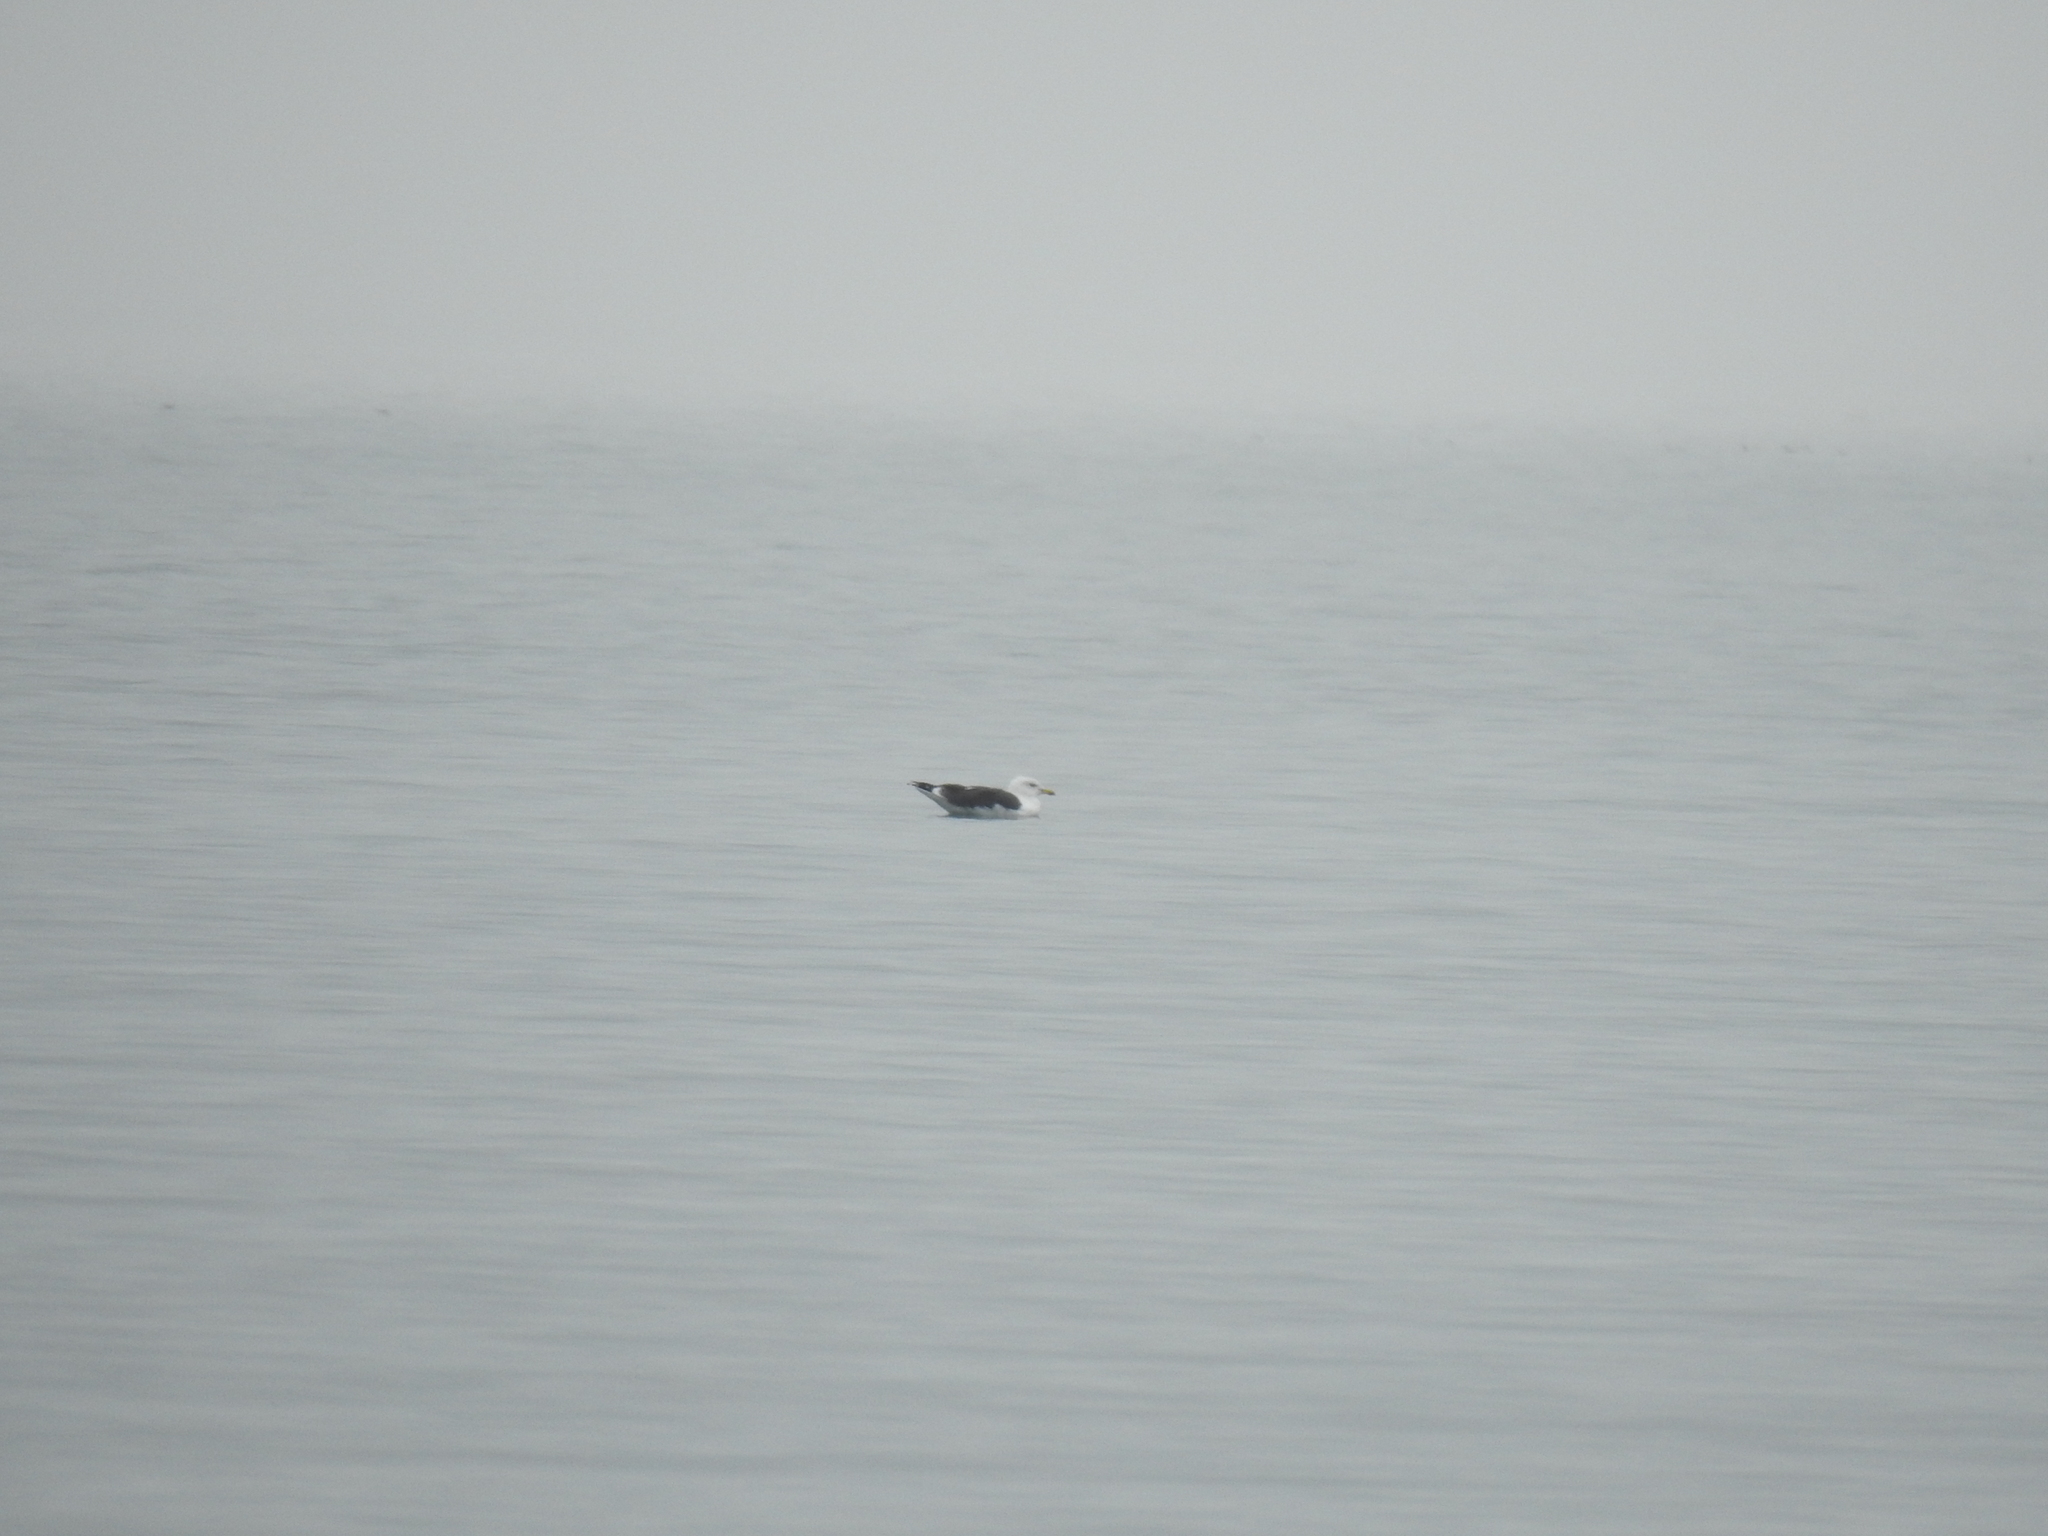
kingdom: Animalia
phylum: Chordata
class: Aves
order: Charadriiformes
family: Laridae
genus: Larus
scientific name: Larus marinus
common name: Great black-backed gull
